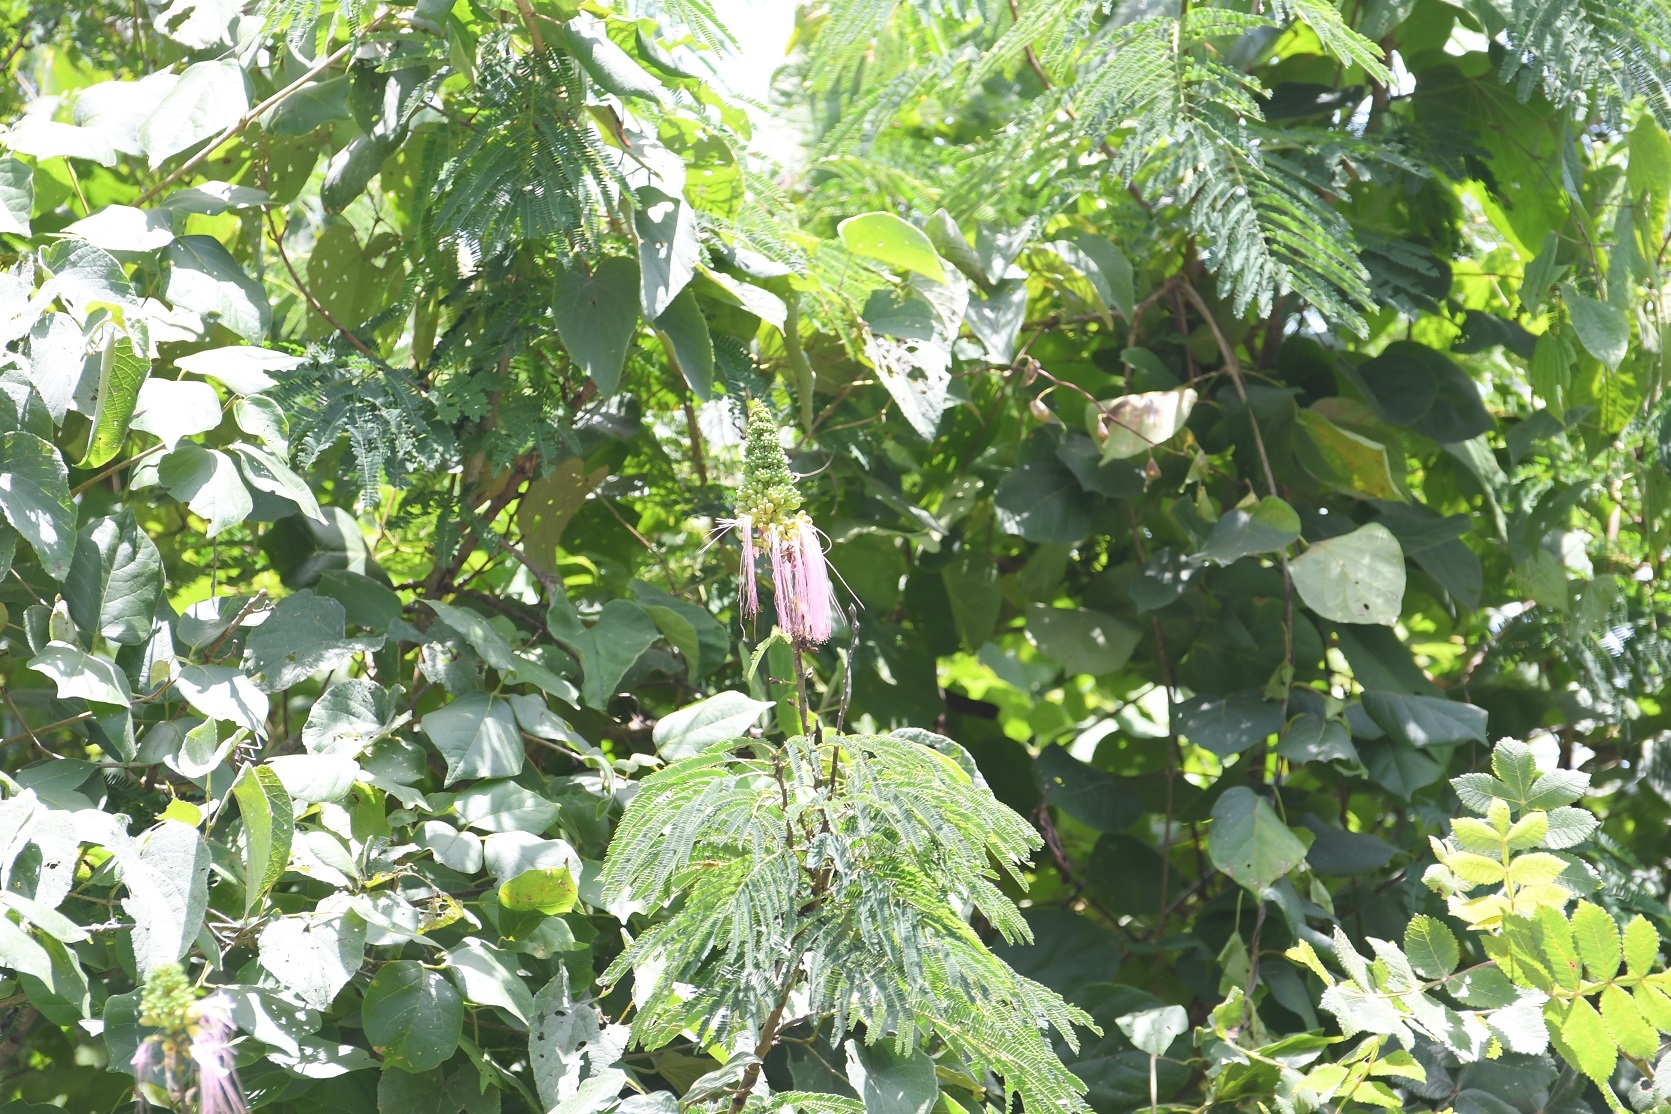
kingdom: Plantae
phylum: Tracheophyta
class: Magnoliopsida
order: Fabales
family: Fabaceae
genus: Calliandra
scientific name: Calliandra houstoniana
